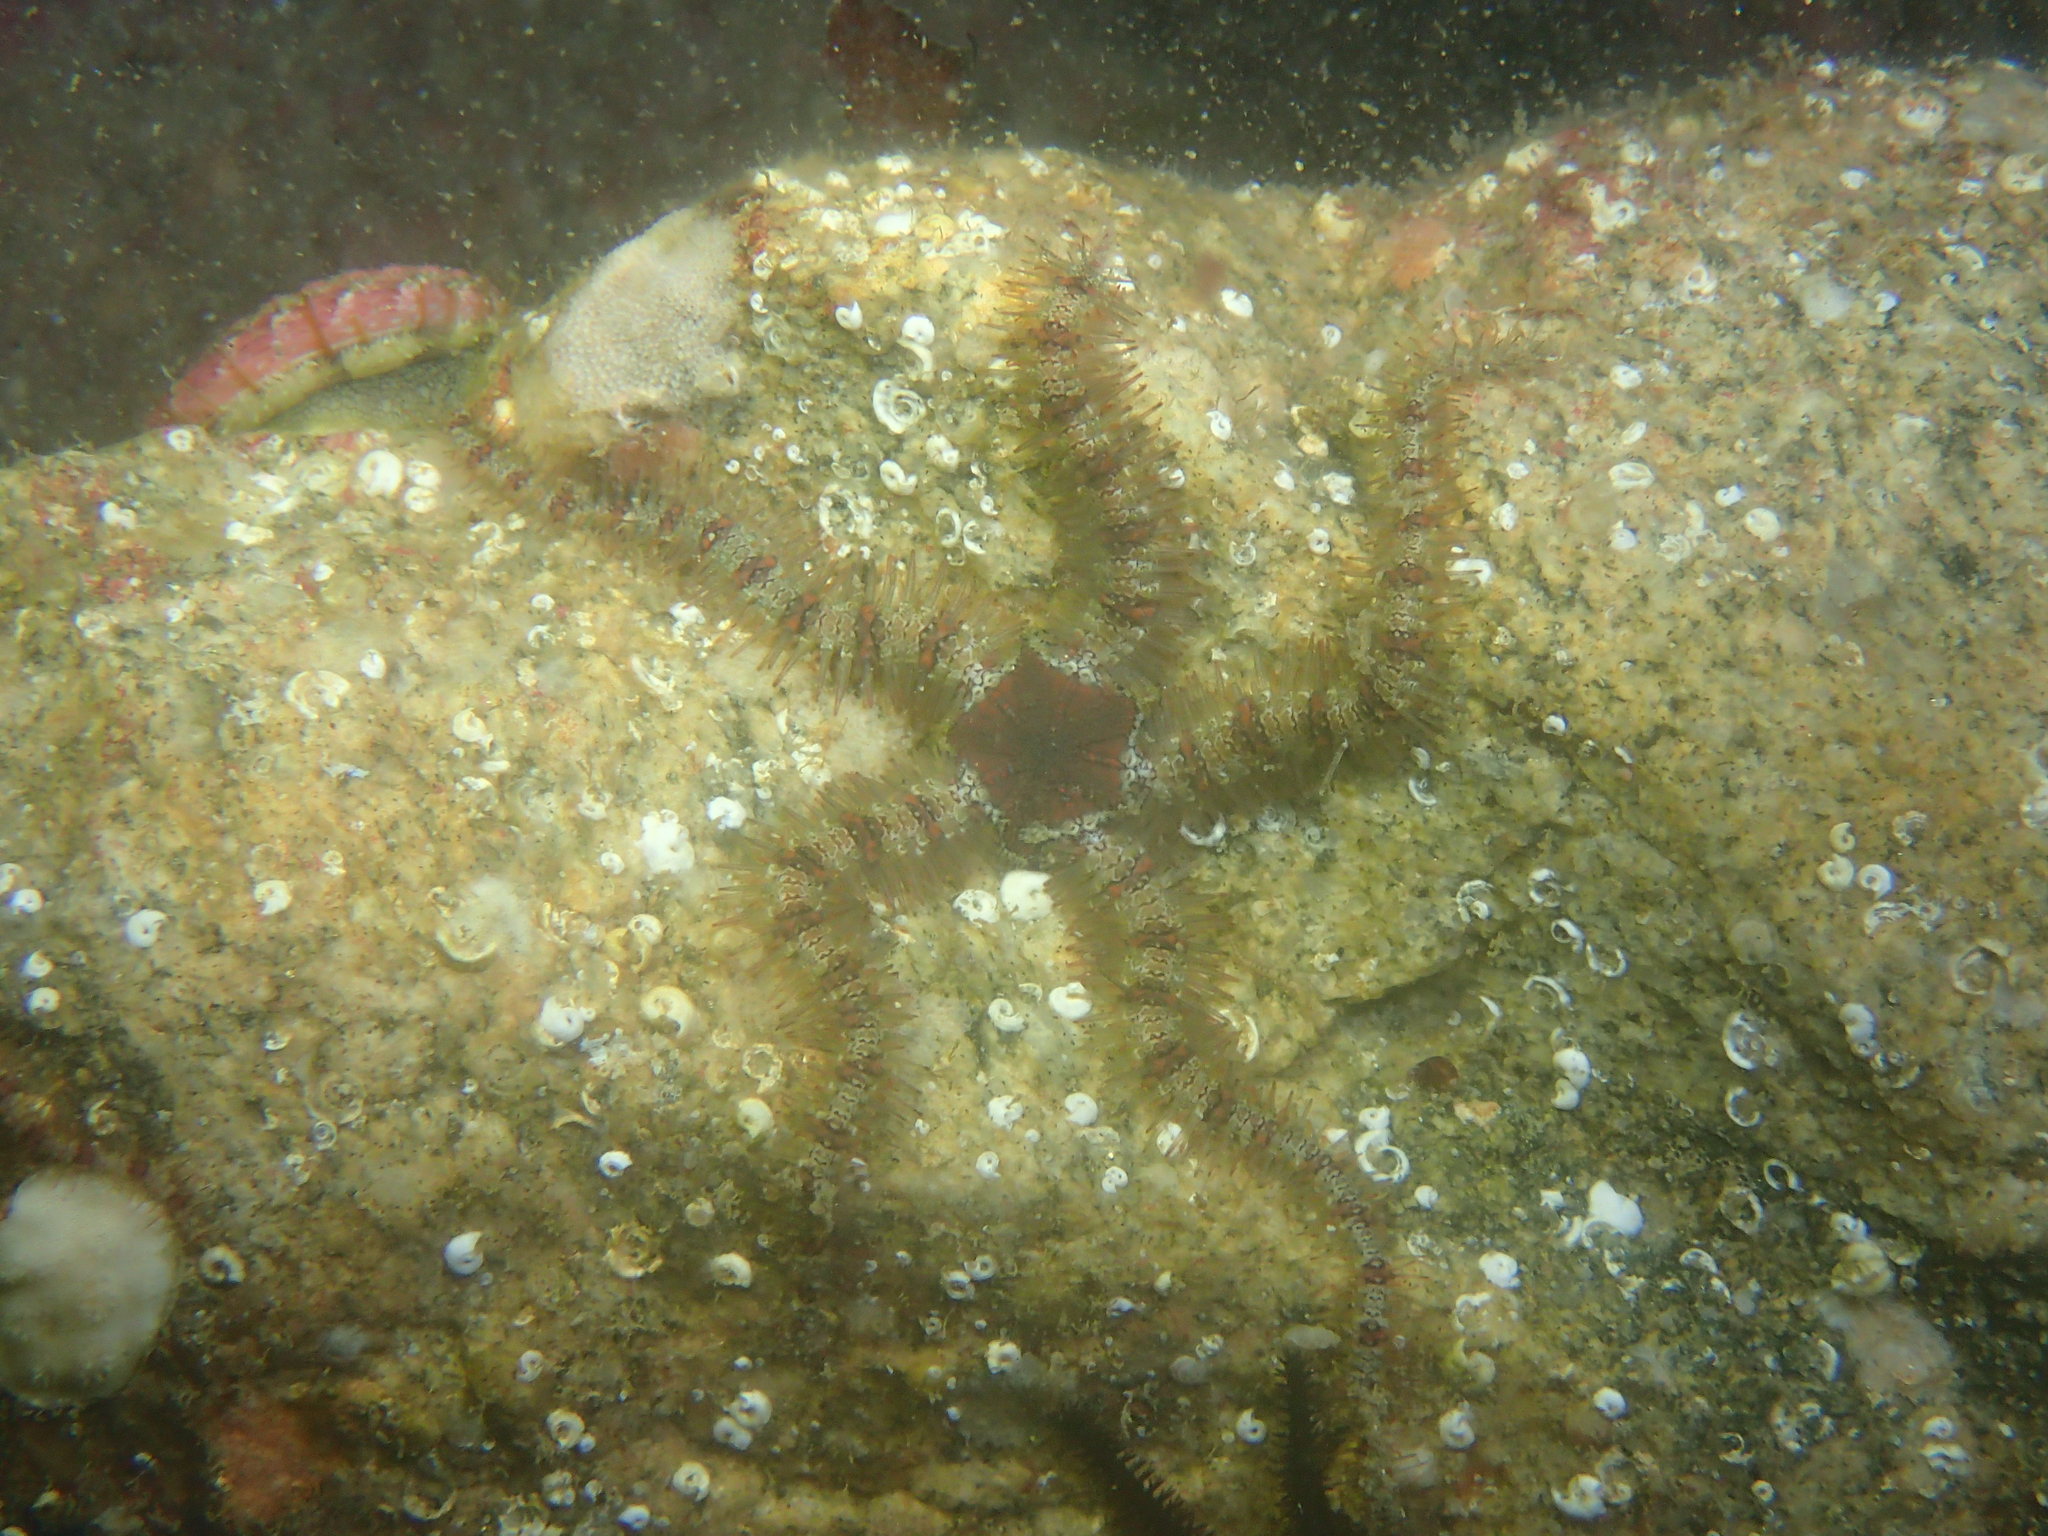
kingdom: Animalia
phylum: Echinodermata
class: Ophiuroidea
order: Amphilepidida
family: Ophiotrichidae
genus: Ophiothrix
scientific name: Ophiothrix fragilis
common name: Common brittlestar
